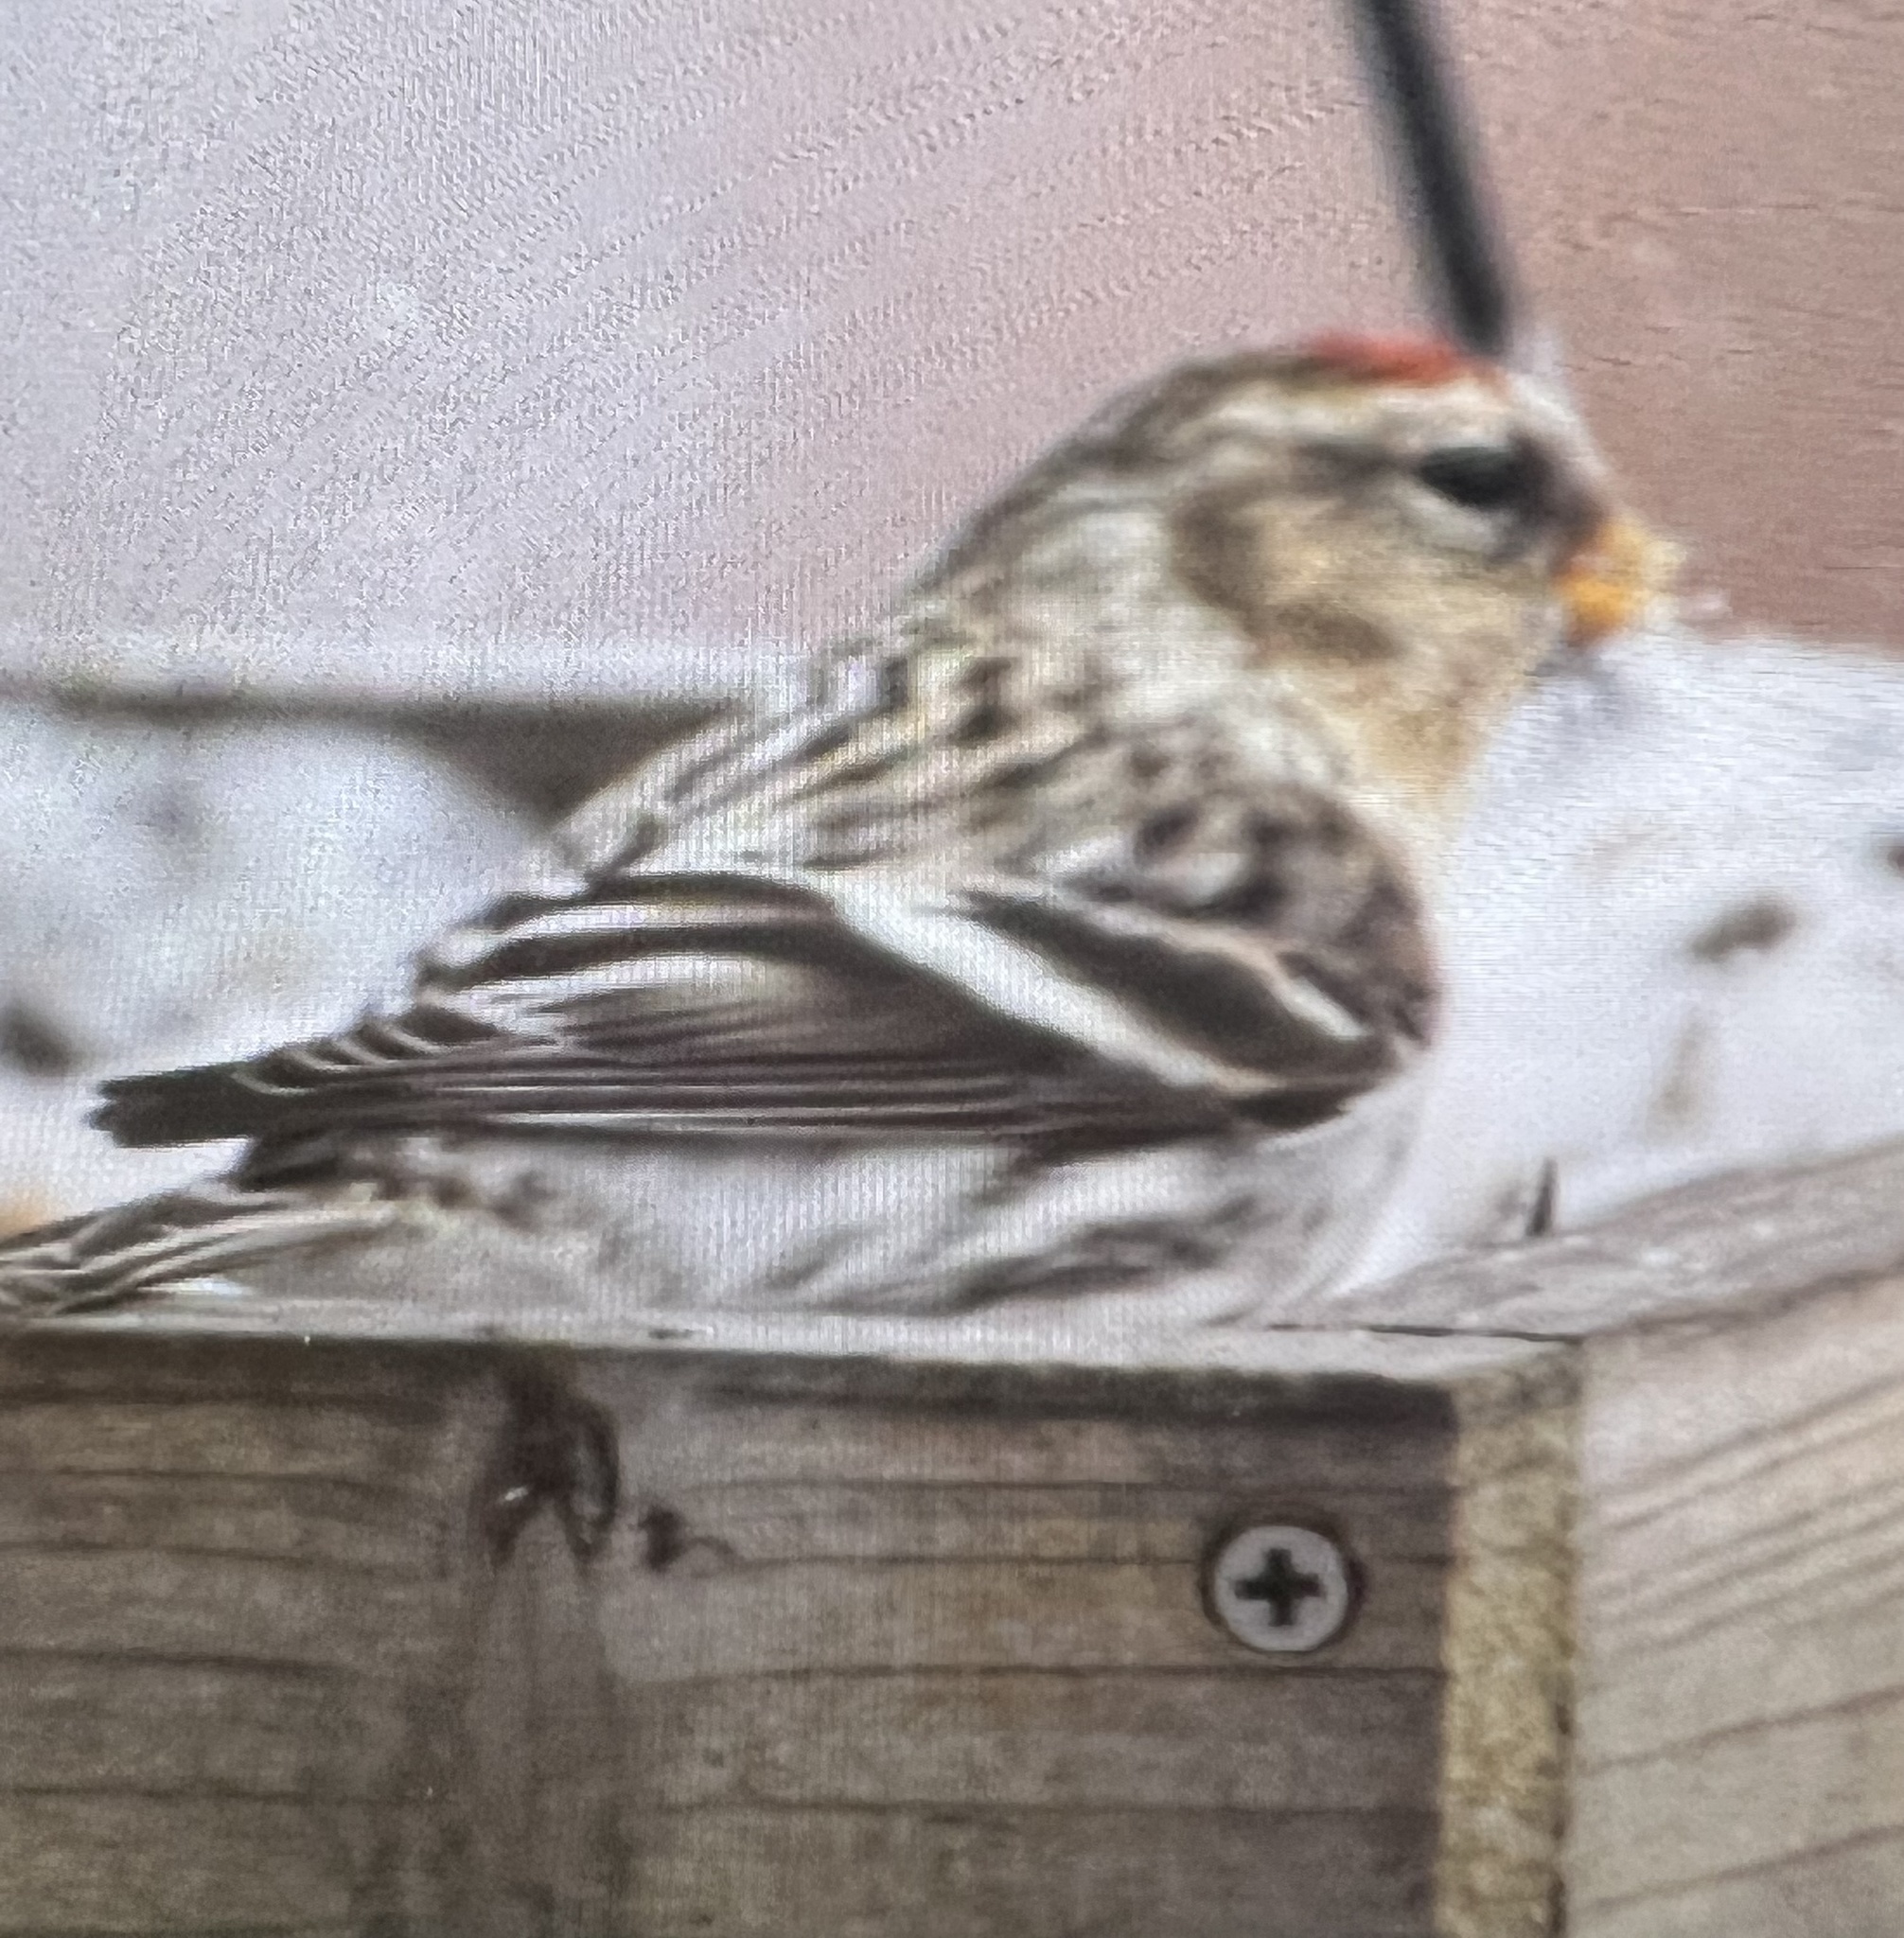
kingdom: Animalia
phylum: Chordata
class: Aves
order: Passeriformes
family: Fringillidae
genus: Acanthis
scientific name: Acanthis flammea
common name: Common redpoll
